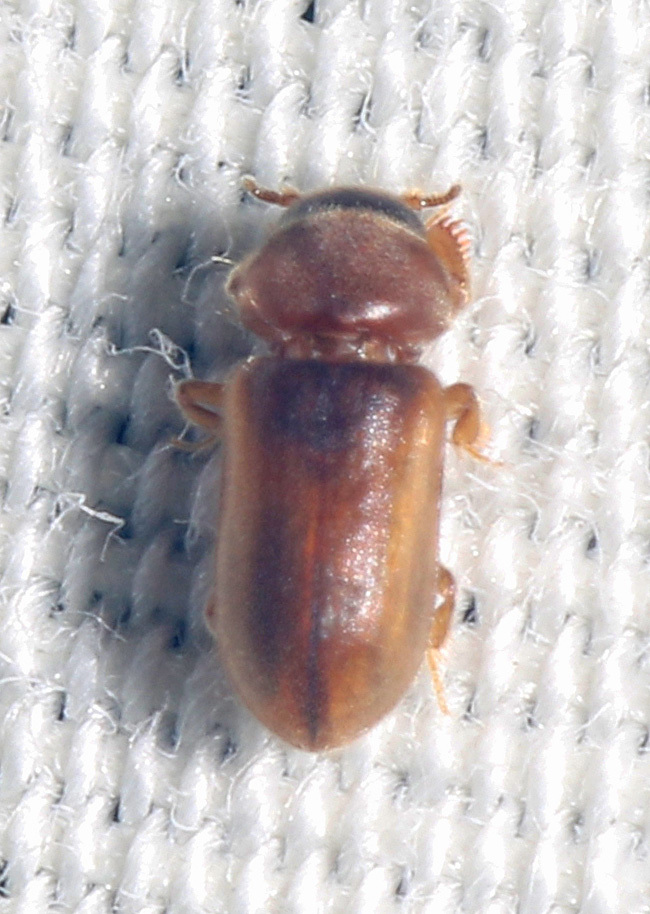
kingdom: Animalia
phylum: Arthropoda
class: Insecta
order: Coleoptera
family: Heteroceridae
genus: Tropicus
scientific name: Tropicus pusillus
